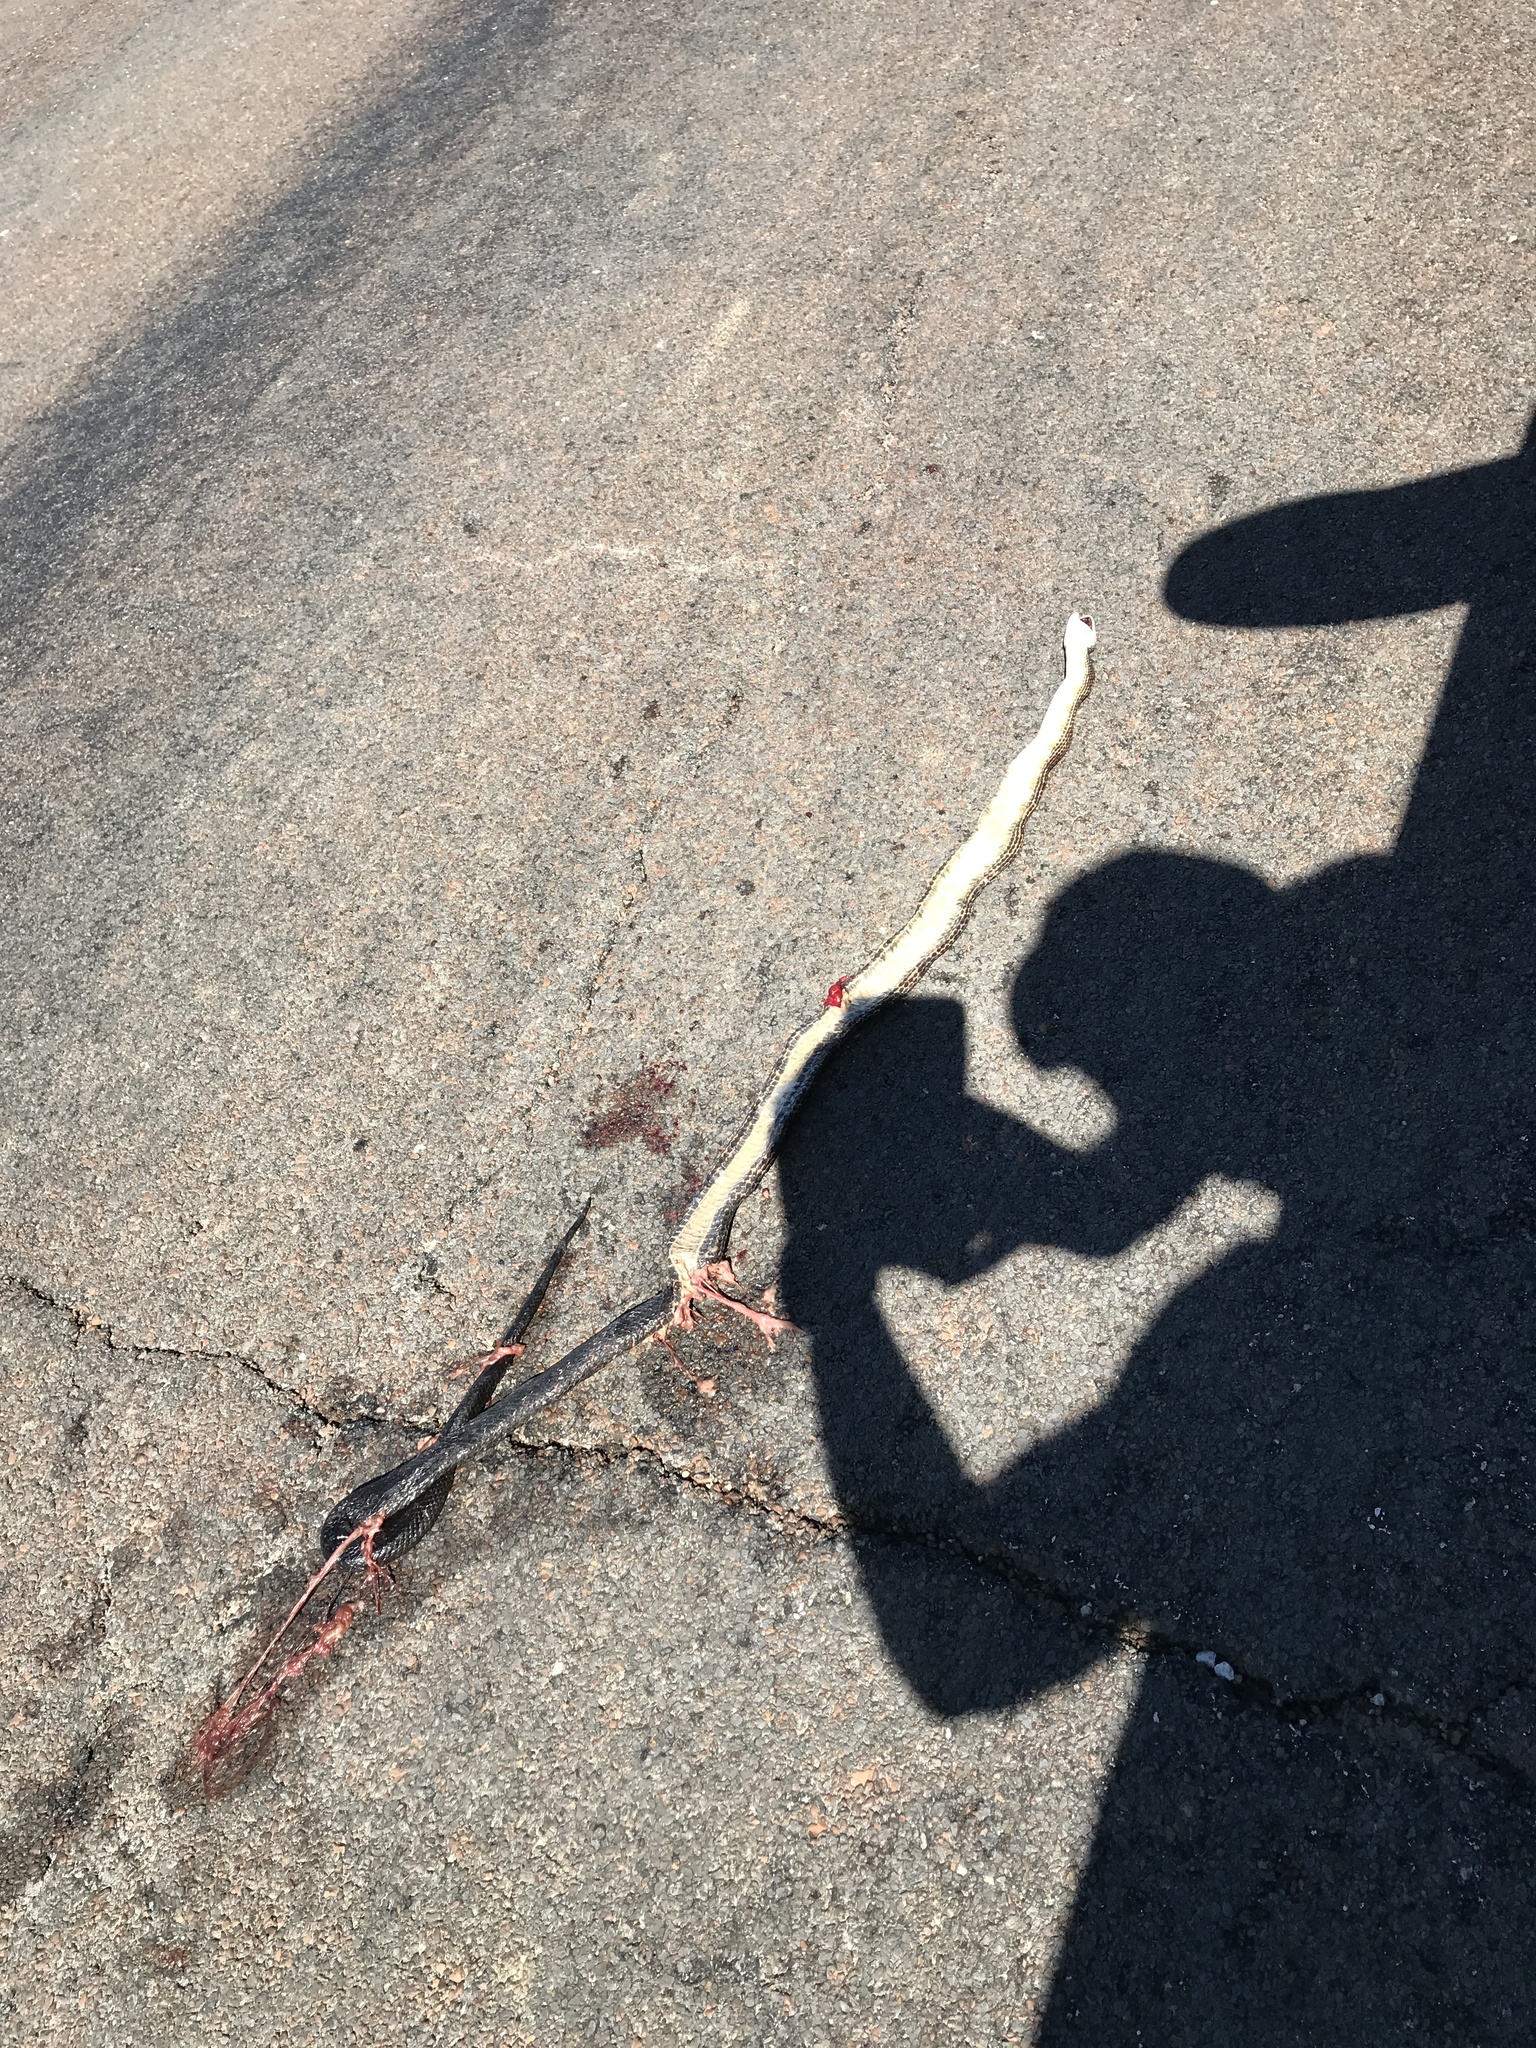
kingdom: Animalia
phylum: Chordata
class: Squamata
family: Colubridae
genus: Pantherophis
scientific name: Pantherophis obsoletus
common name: Black rat snake
